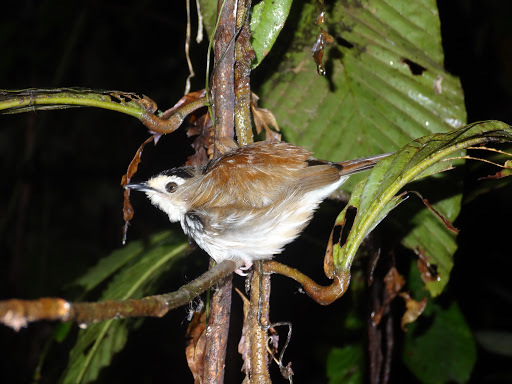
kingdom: Animalia
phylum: Chordata
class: Aves
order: Passeriformes
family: Pellorneidae
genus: Kenopia
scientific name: Kenopia striata
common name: Striped wren-babbler
